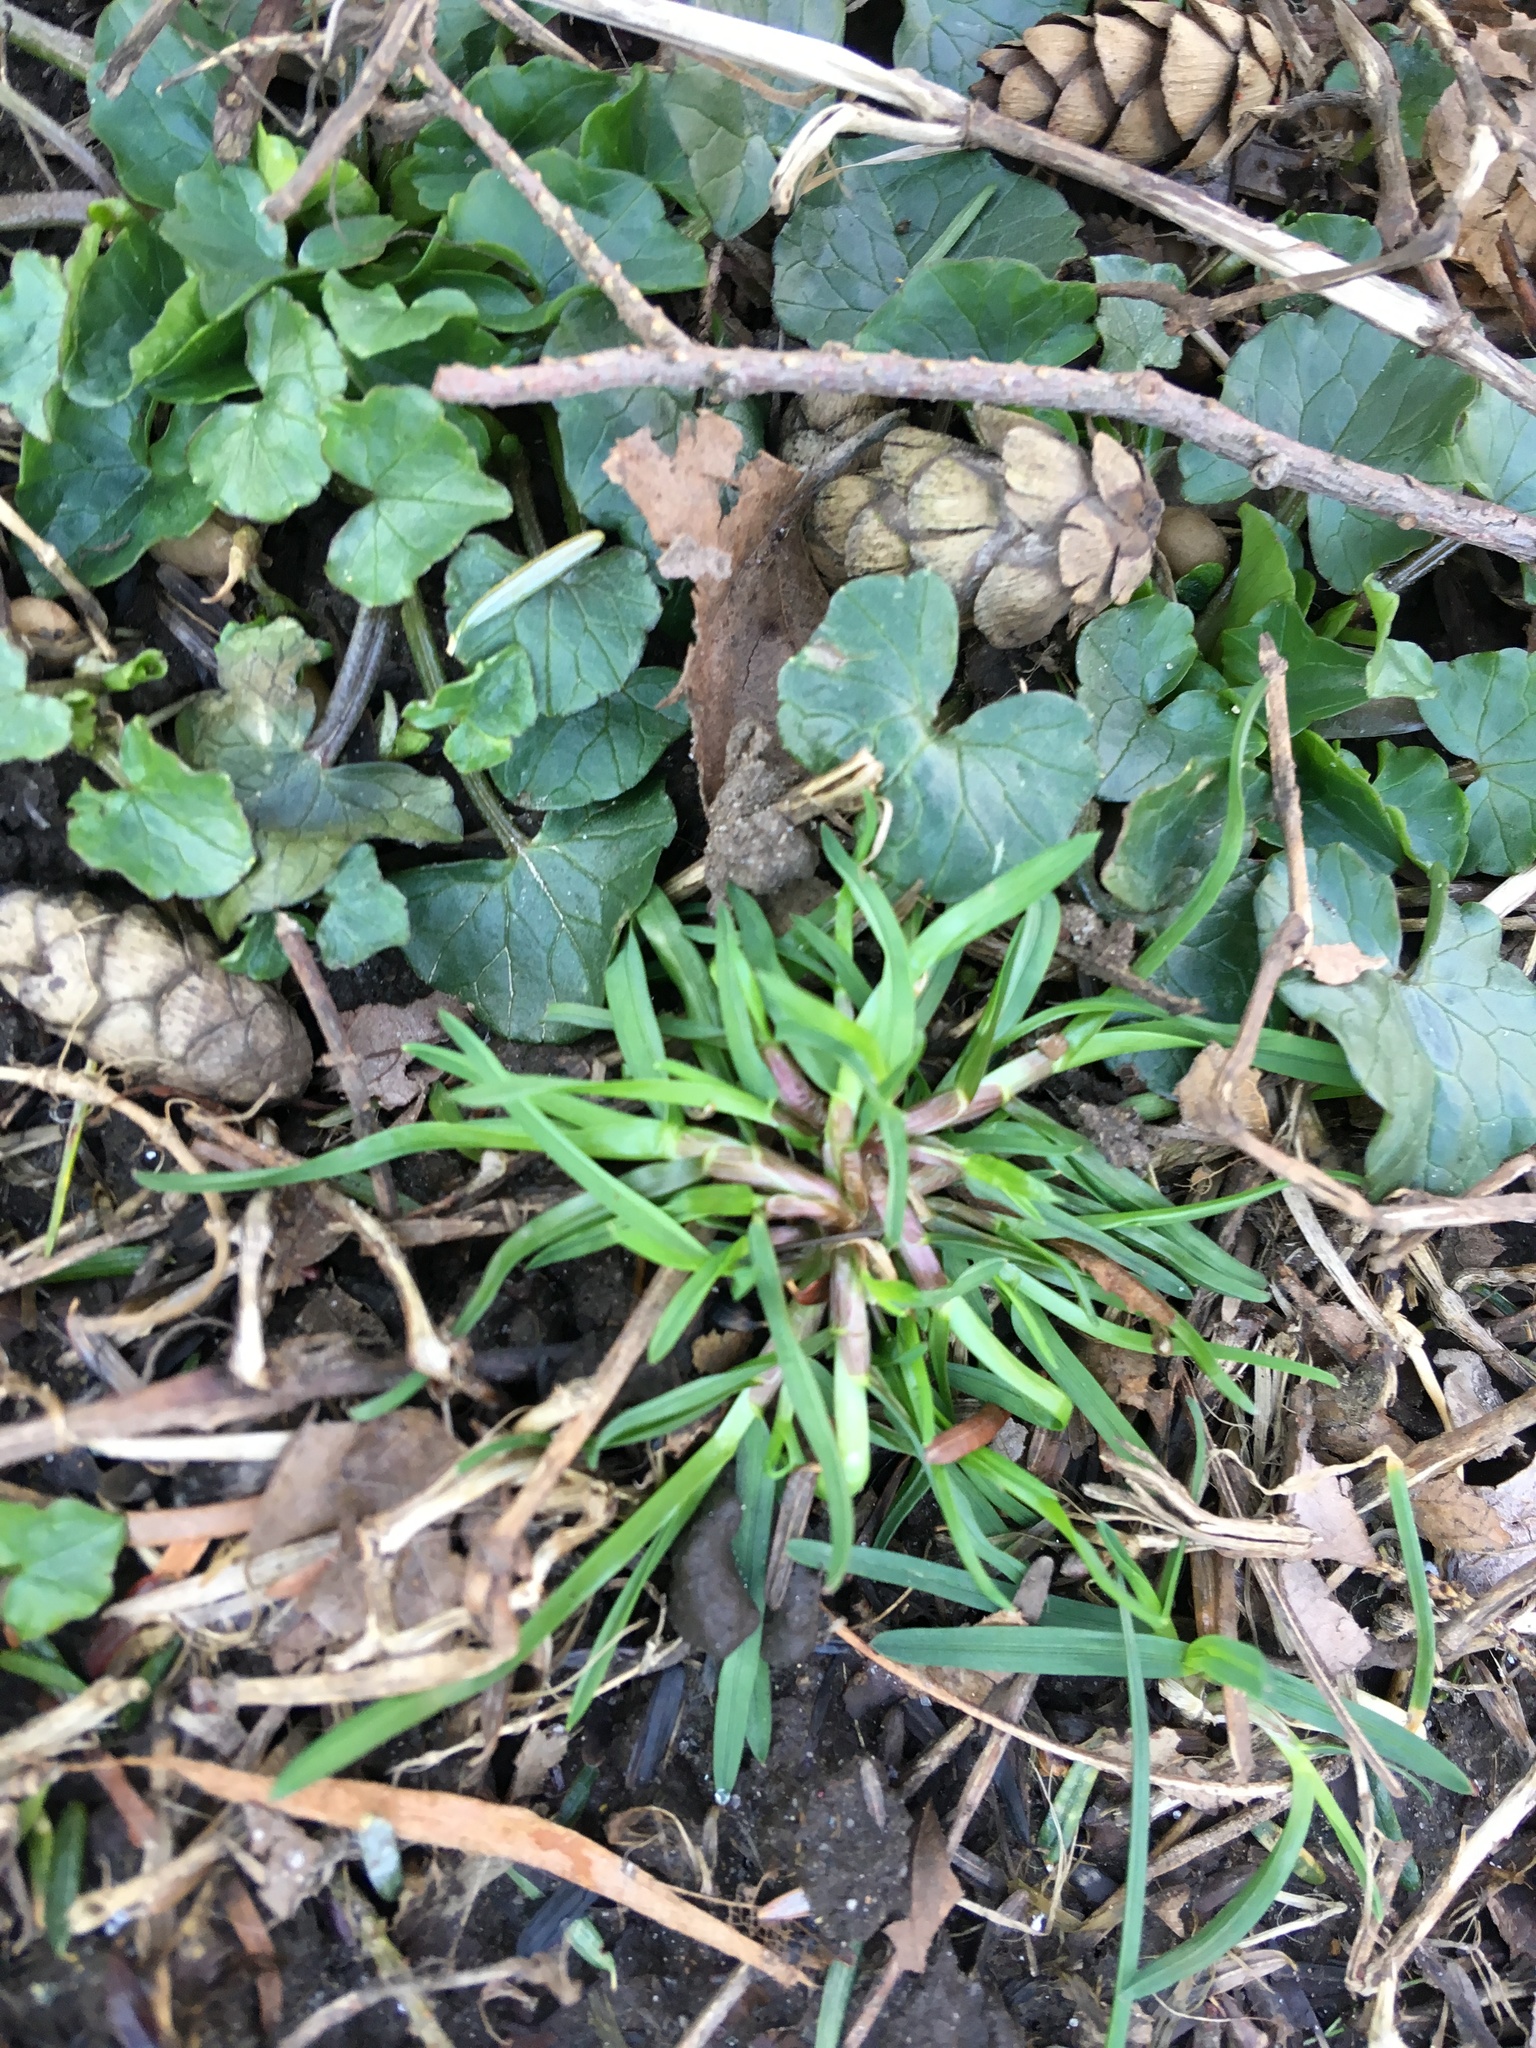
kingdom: Plantae
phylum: Tracheophyta
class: Magnoliopsida
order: Ranunculales
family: Ranunculaceae
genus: Ficaria
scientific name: Ficaria verna
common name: Lesser celandine
